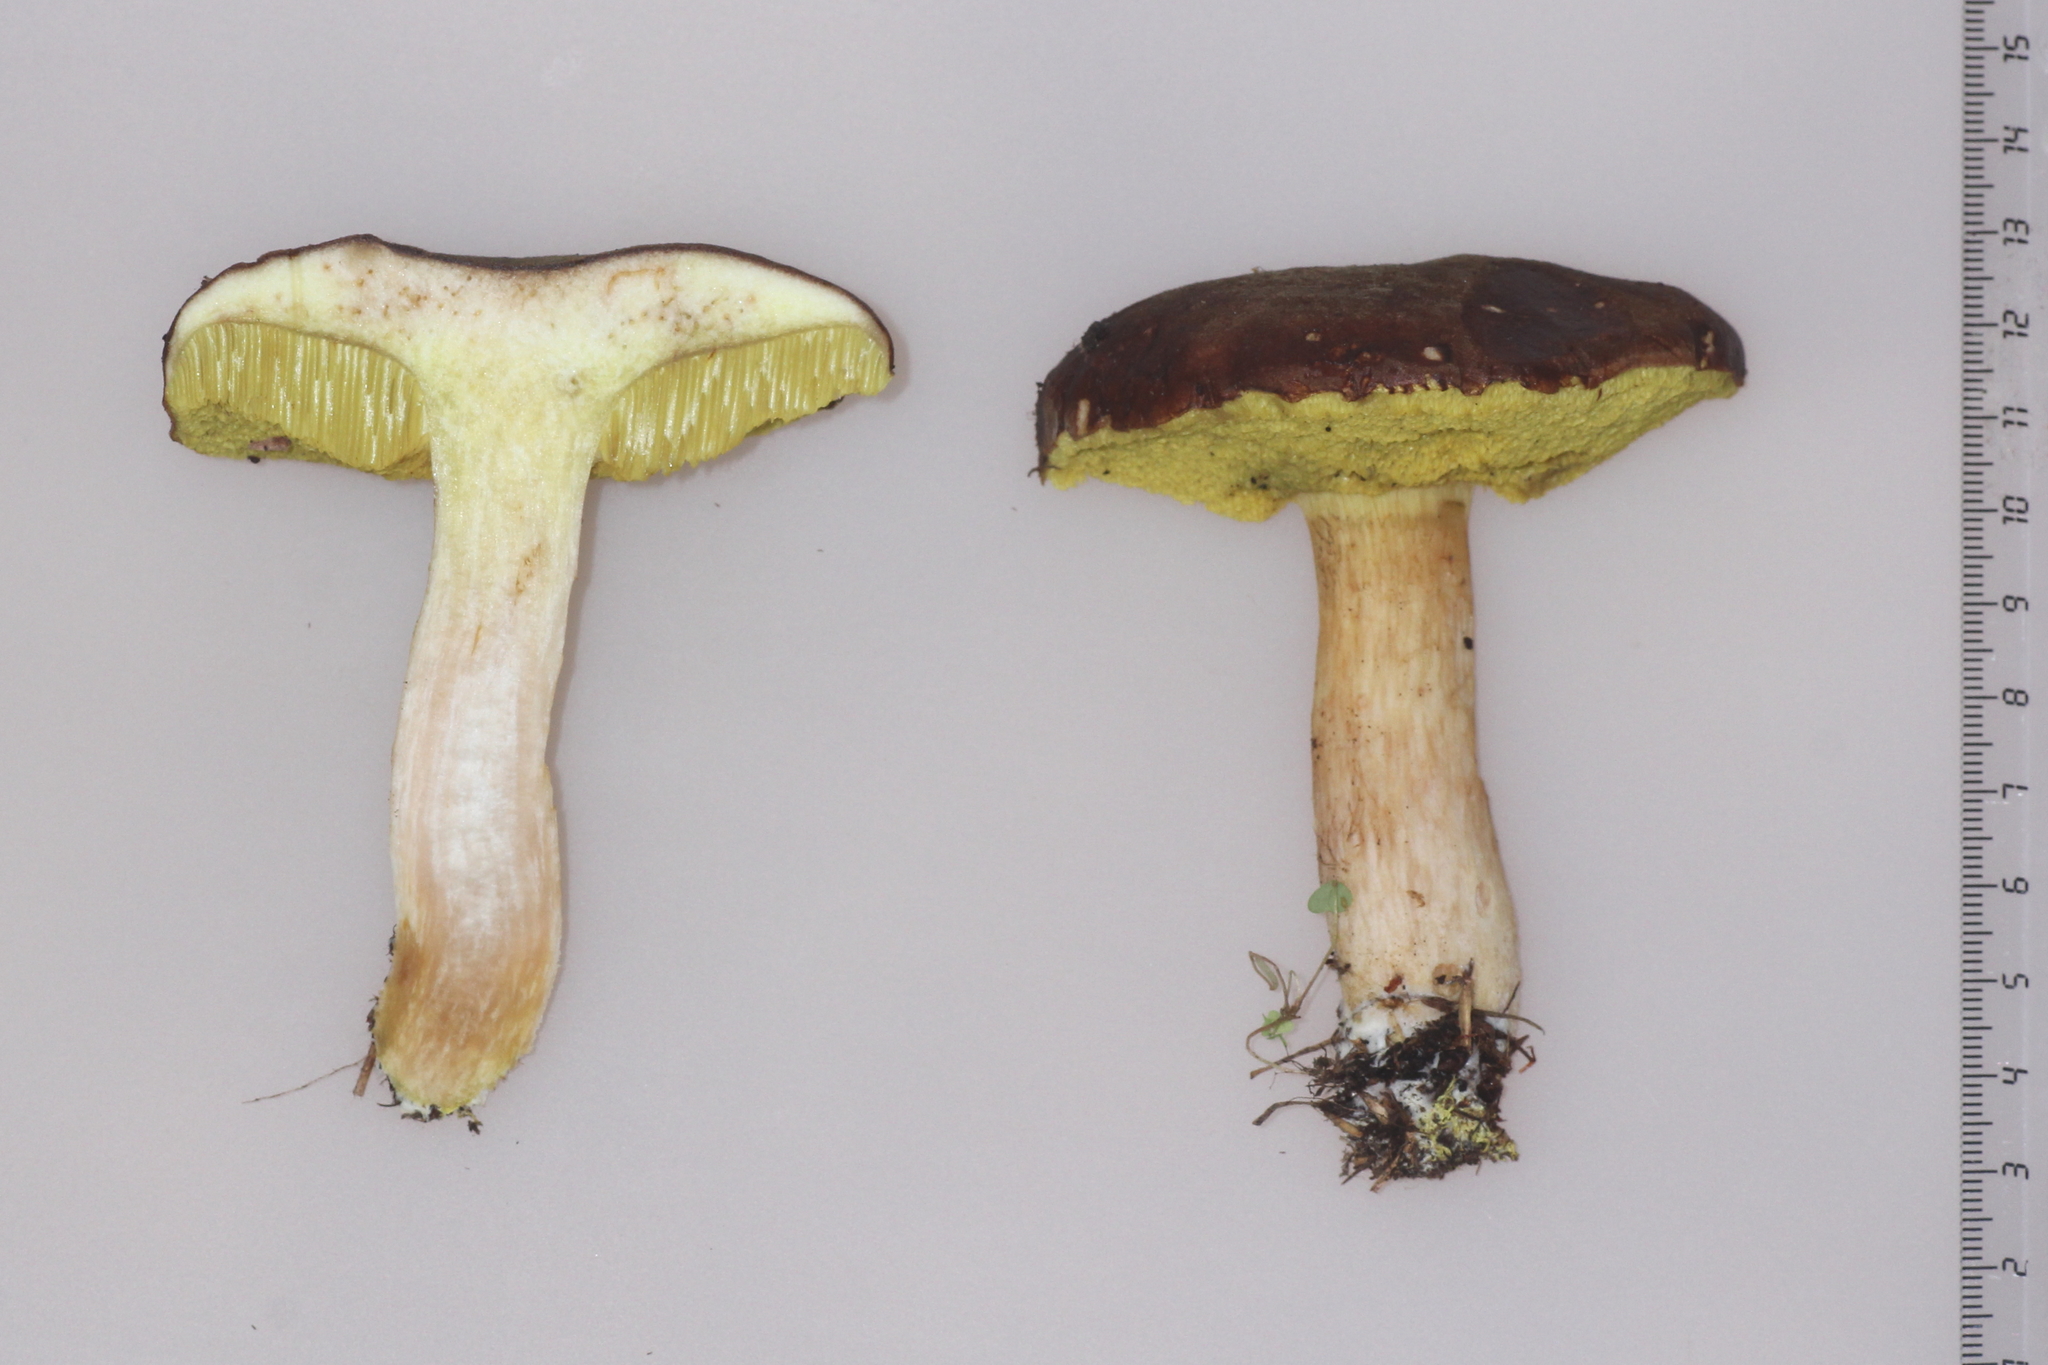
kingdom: Fungi
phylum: Basidiomycota
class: Agaricomycetes
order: Boletales
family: Boletaceae
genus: Xerocomus
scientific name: Xerocomus subtomentosus
